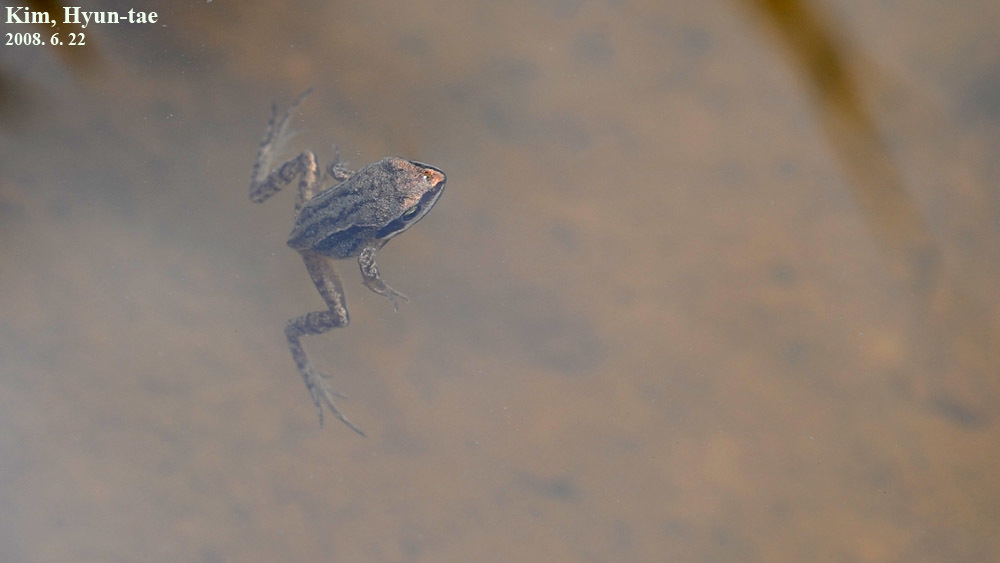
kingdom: Animalia
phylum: Chordata
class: Amphibia
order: Anura
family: Ranidae
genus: Rana
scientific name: Rana coreana
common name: Korean brown frog
